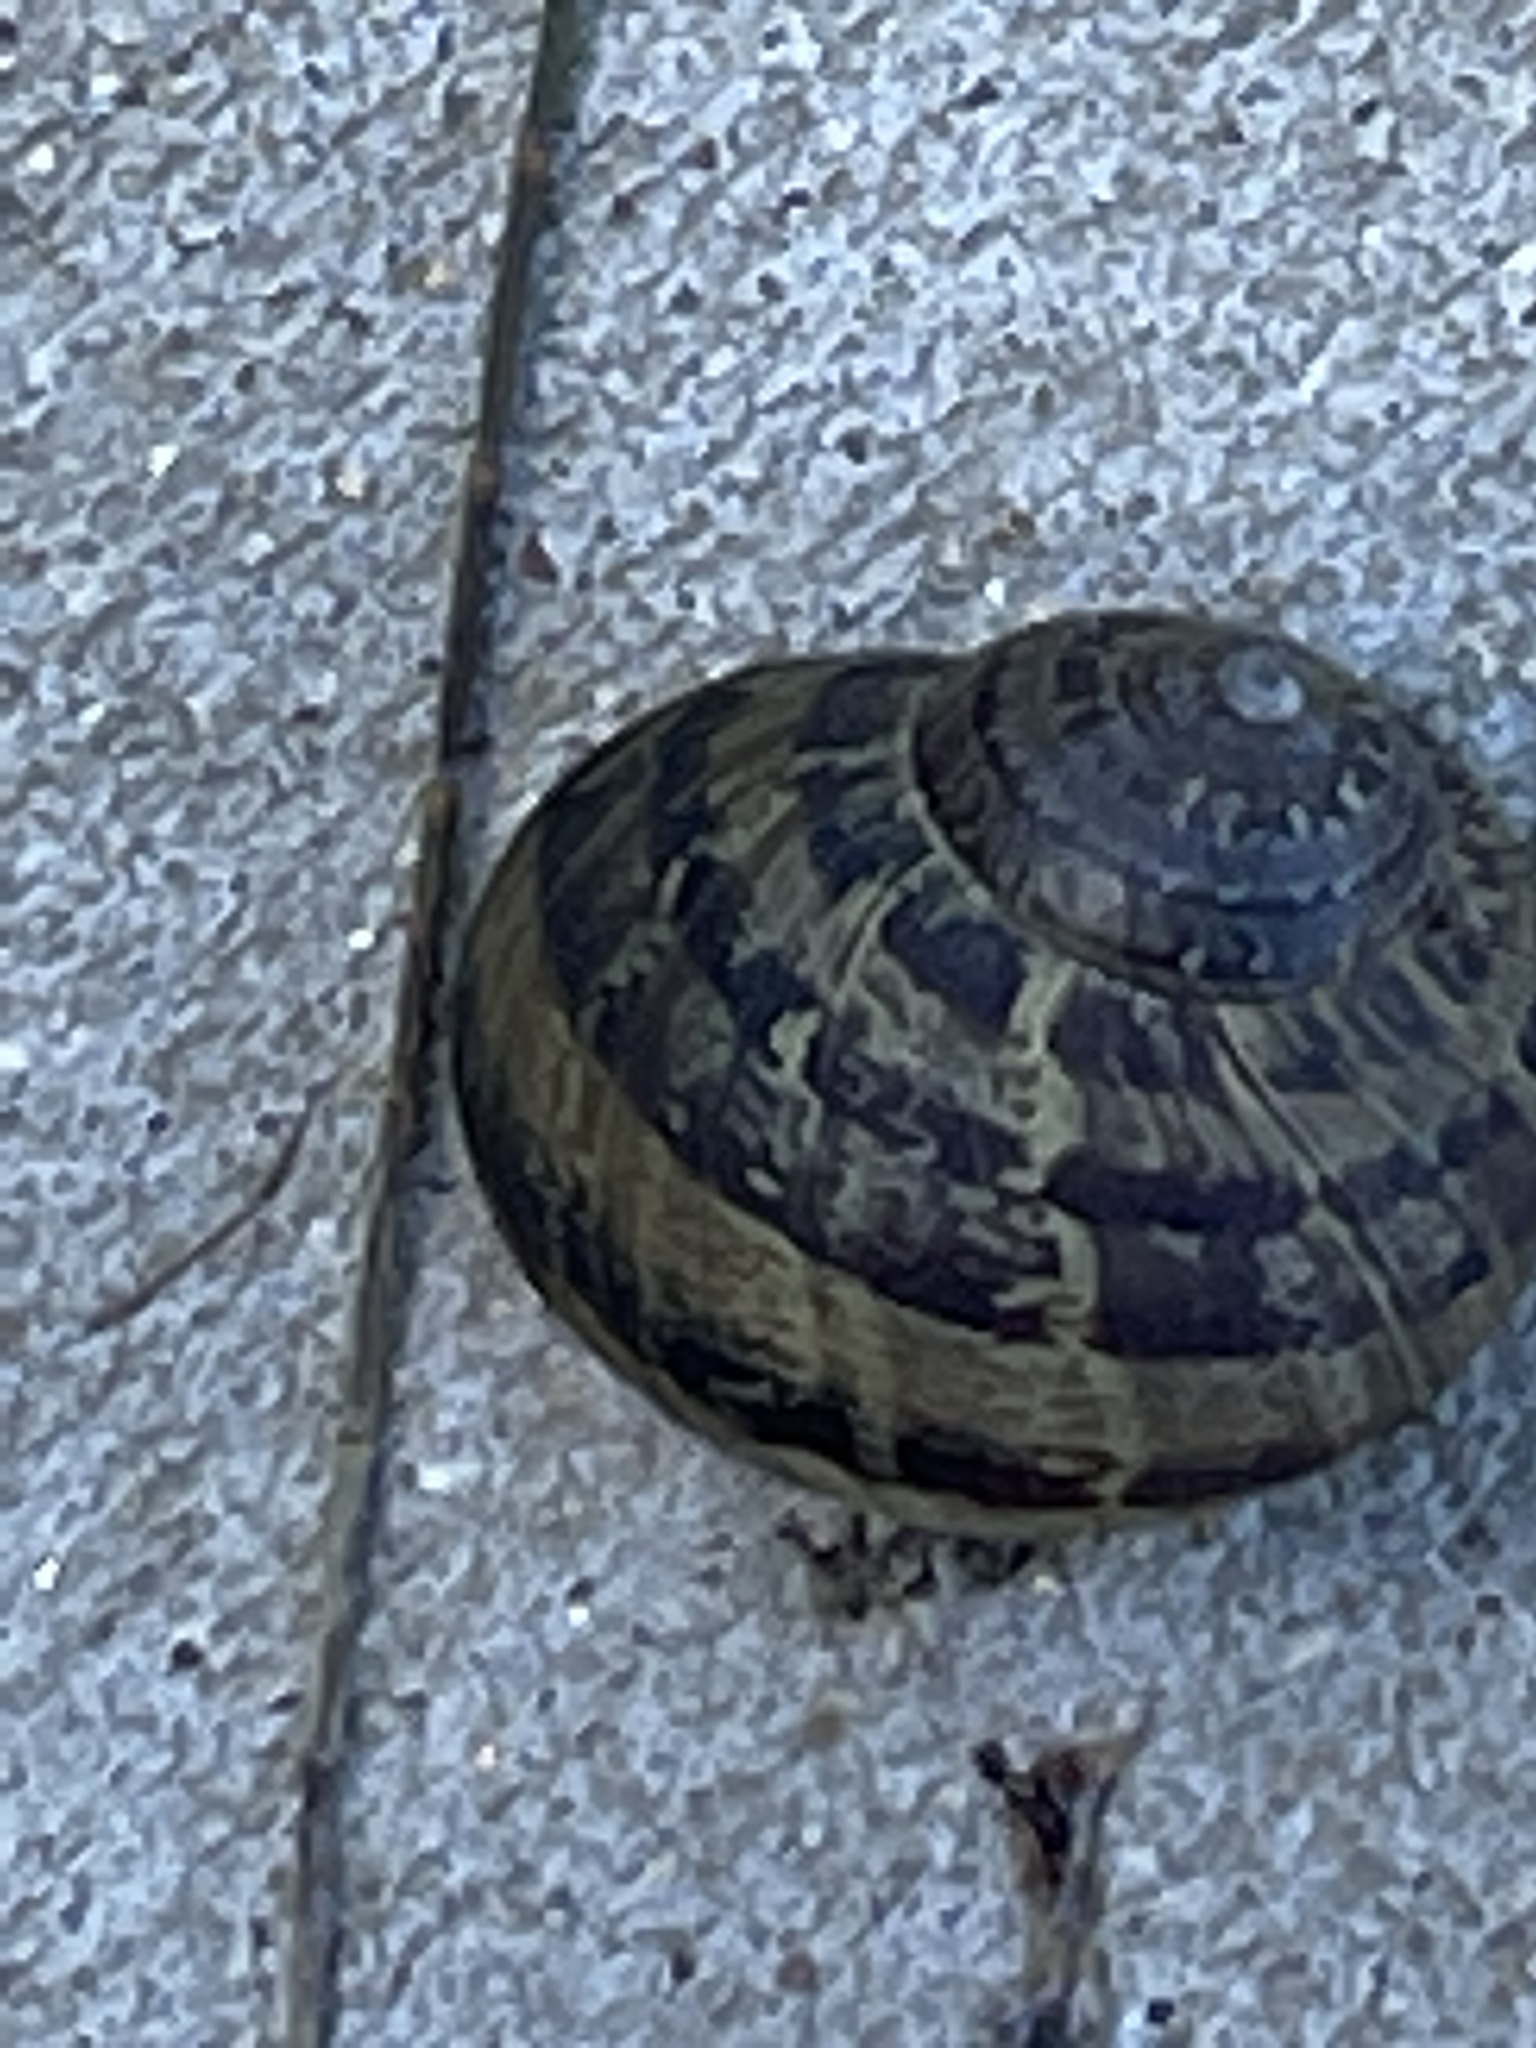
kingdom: Animalia
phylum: Mollusca
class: Gastropoda
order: Stylommatophora
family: Helicidae
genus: Cornu
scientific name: Cornu aspersum
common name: Brown garden snail
